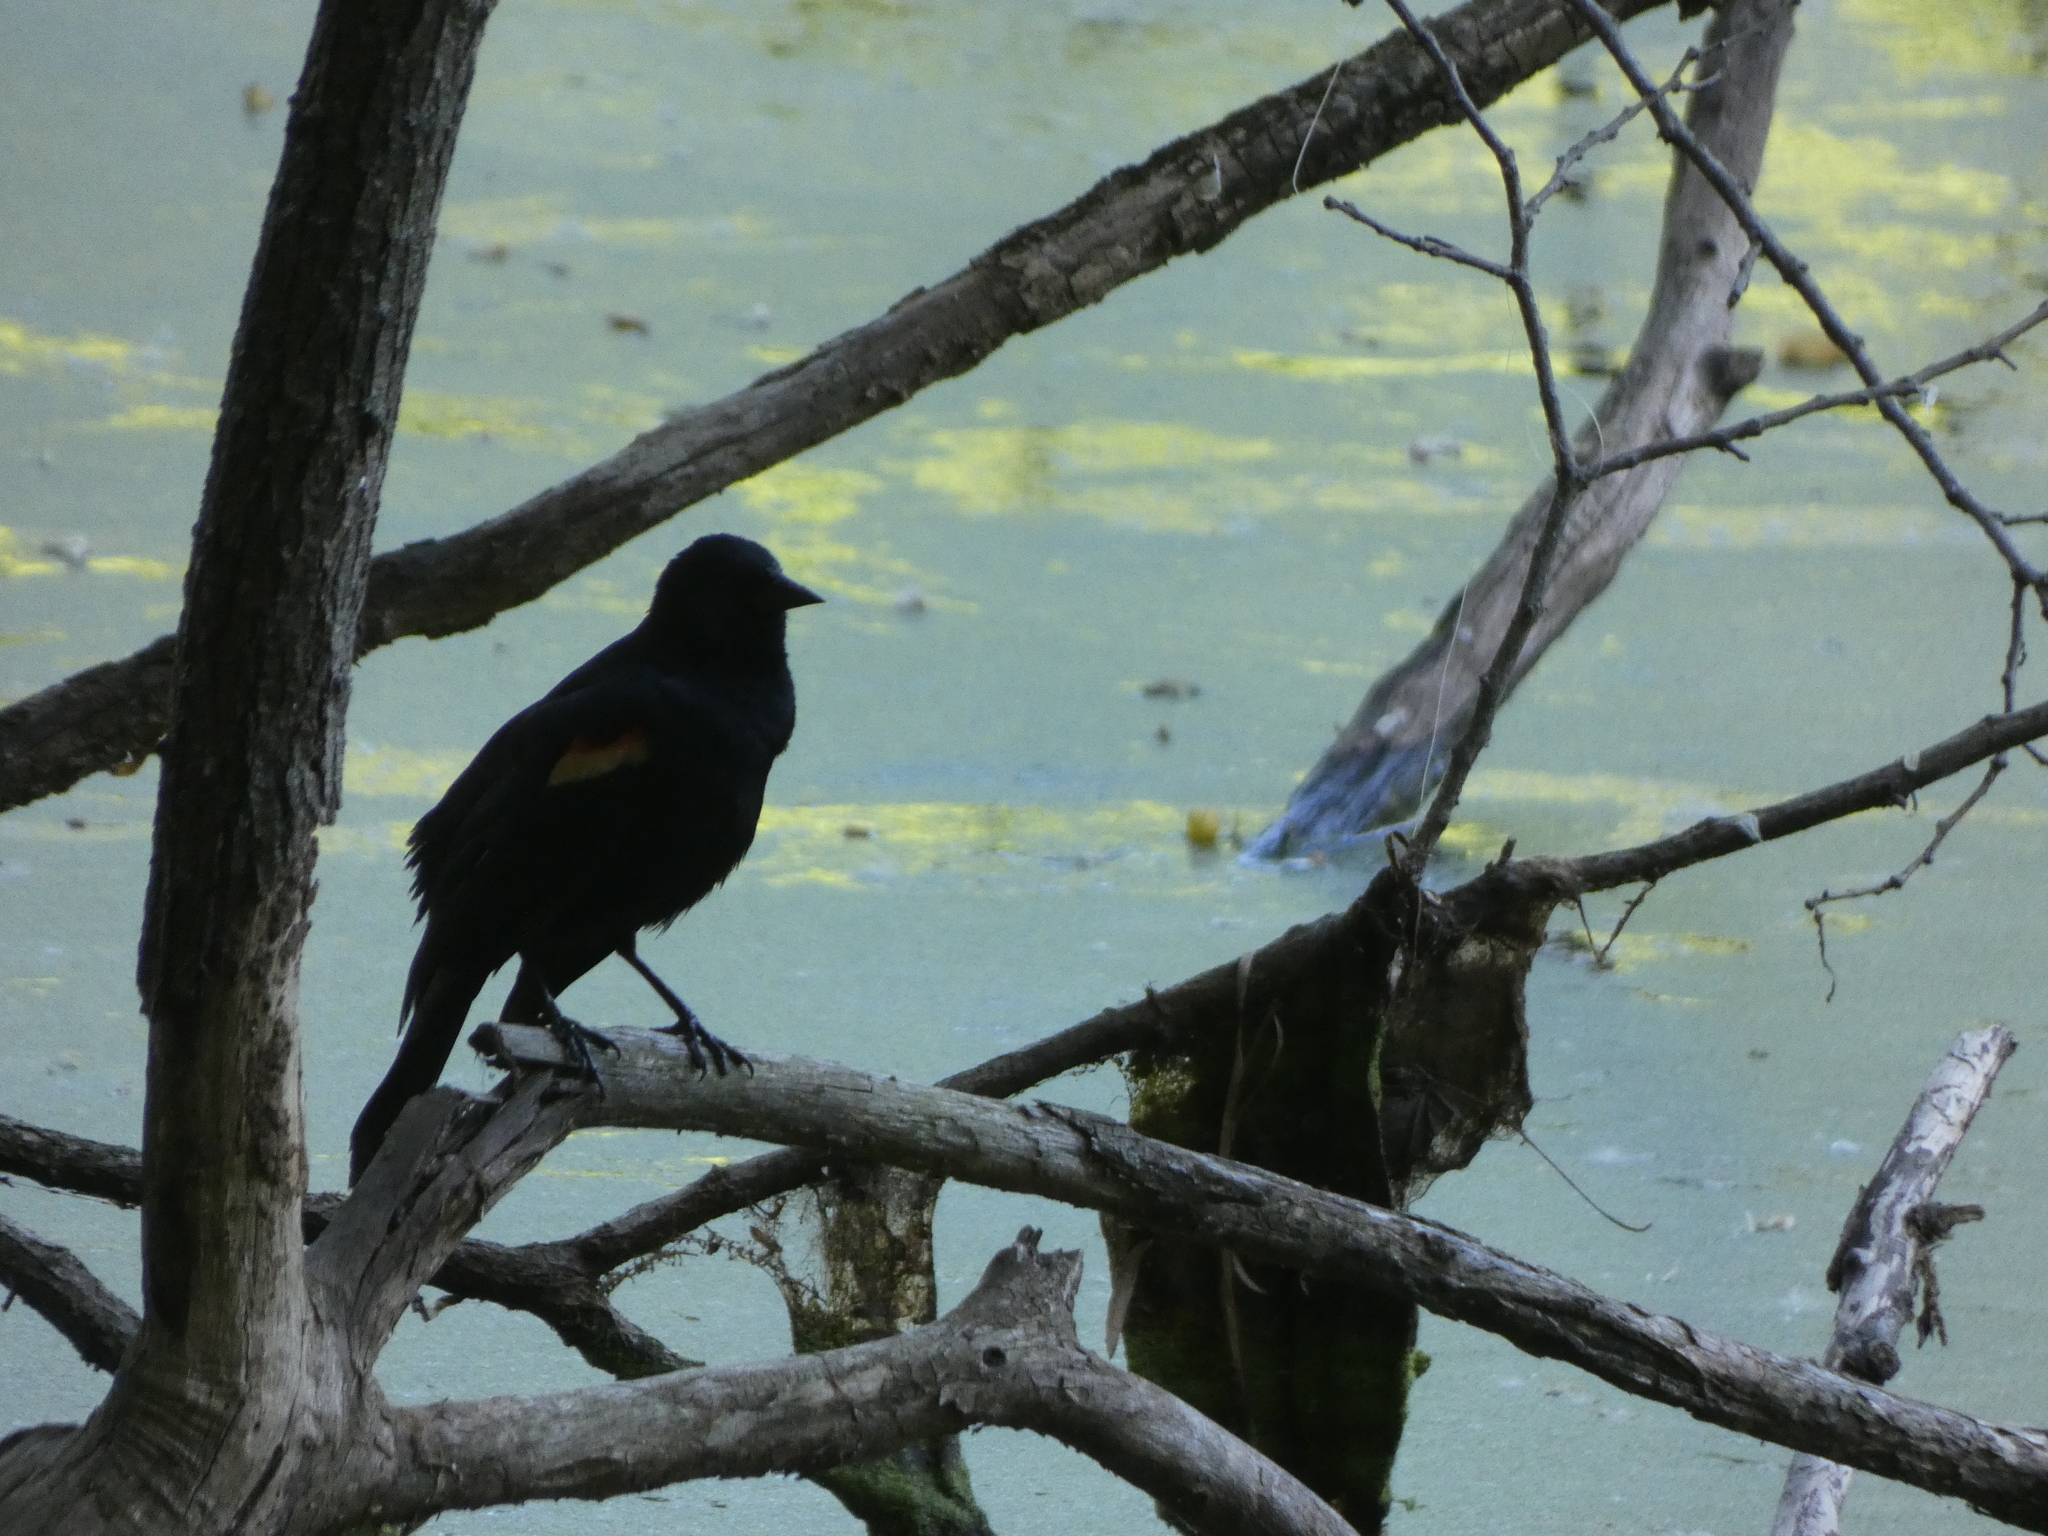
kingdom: Animalia
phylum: Chordata
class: Aves
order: Passeriformes
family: Icteridae
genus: Agelaius
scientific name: Agelaius phoeniceus
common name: Red-winged blackbird
